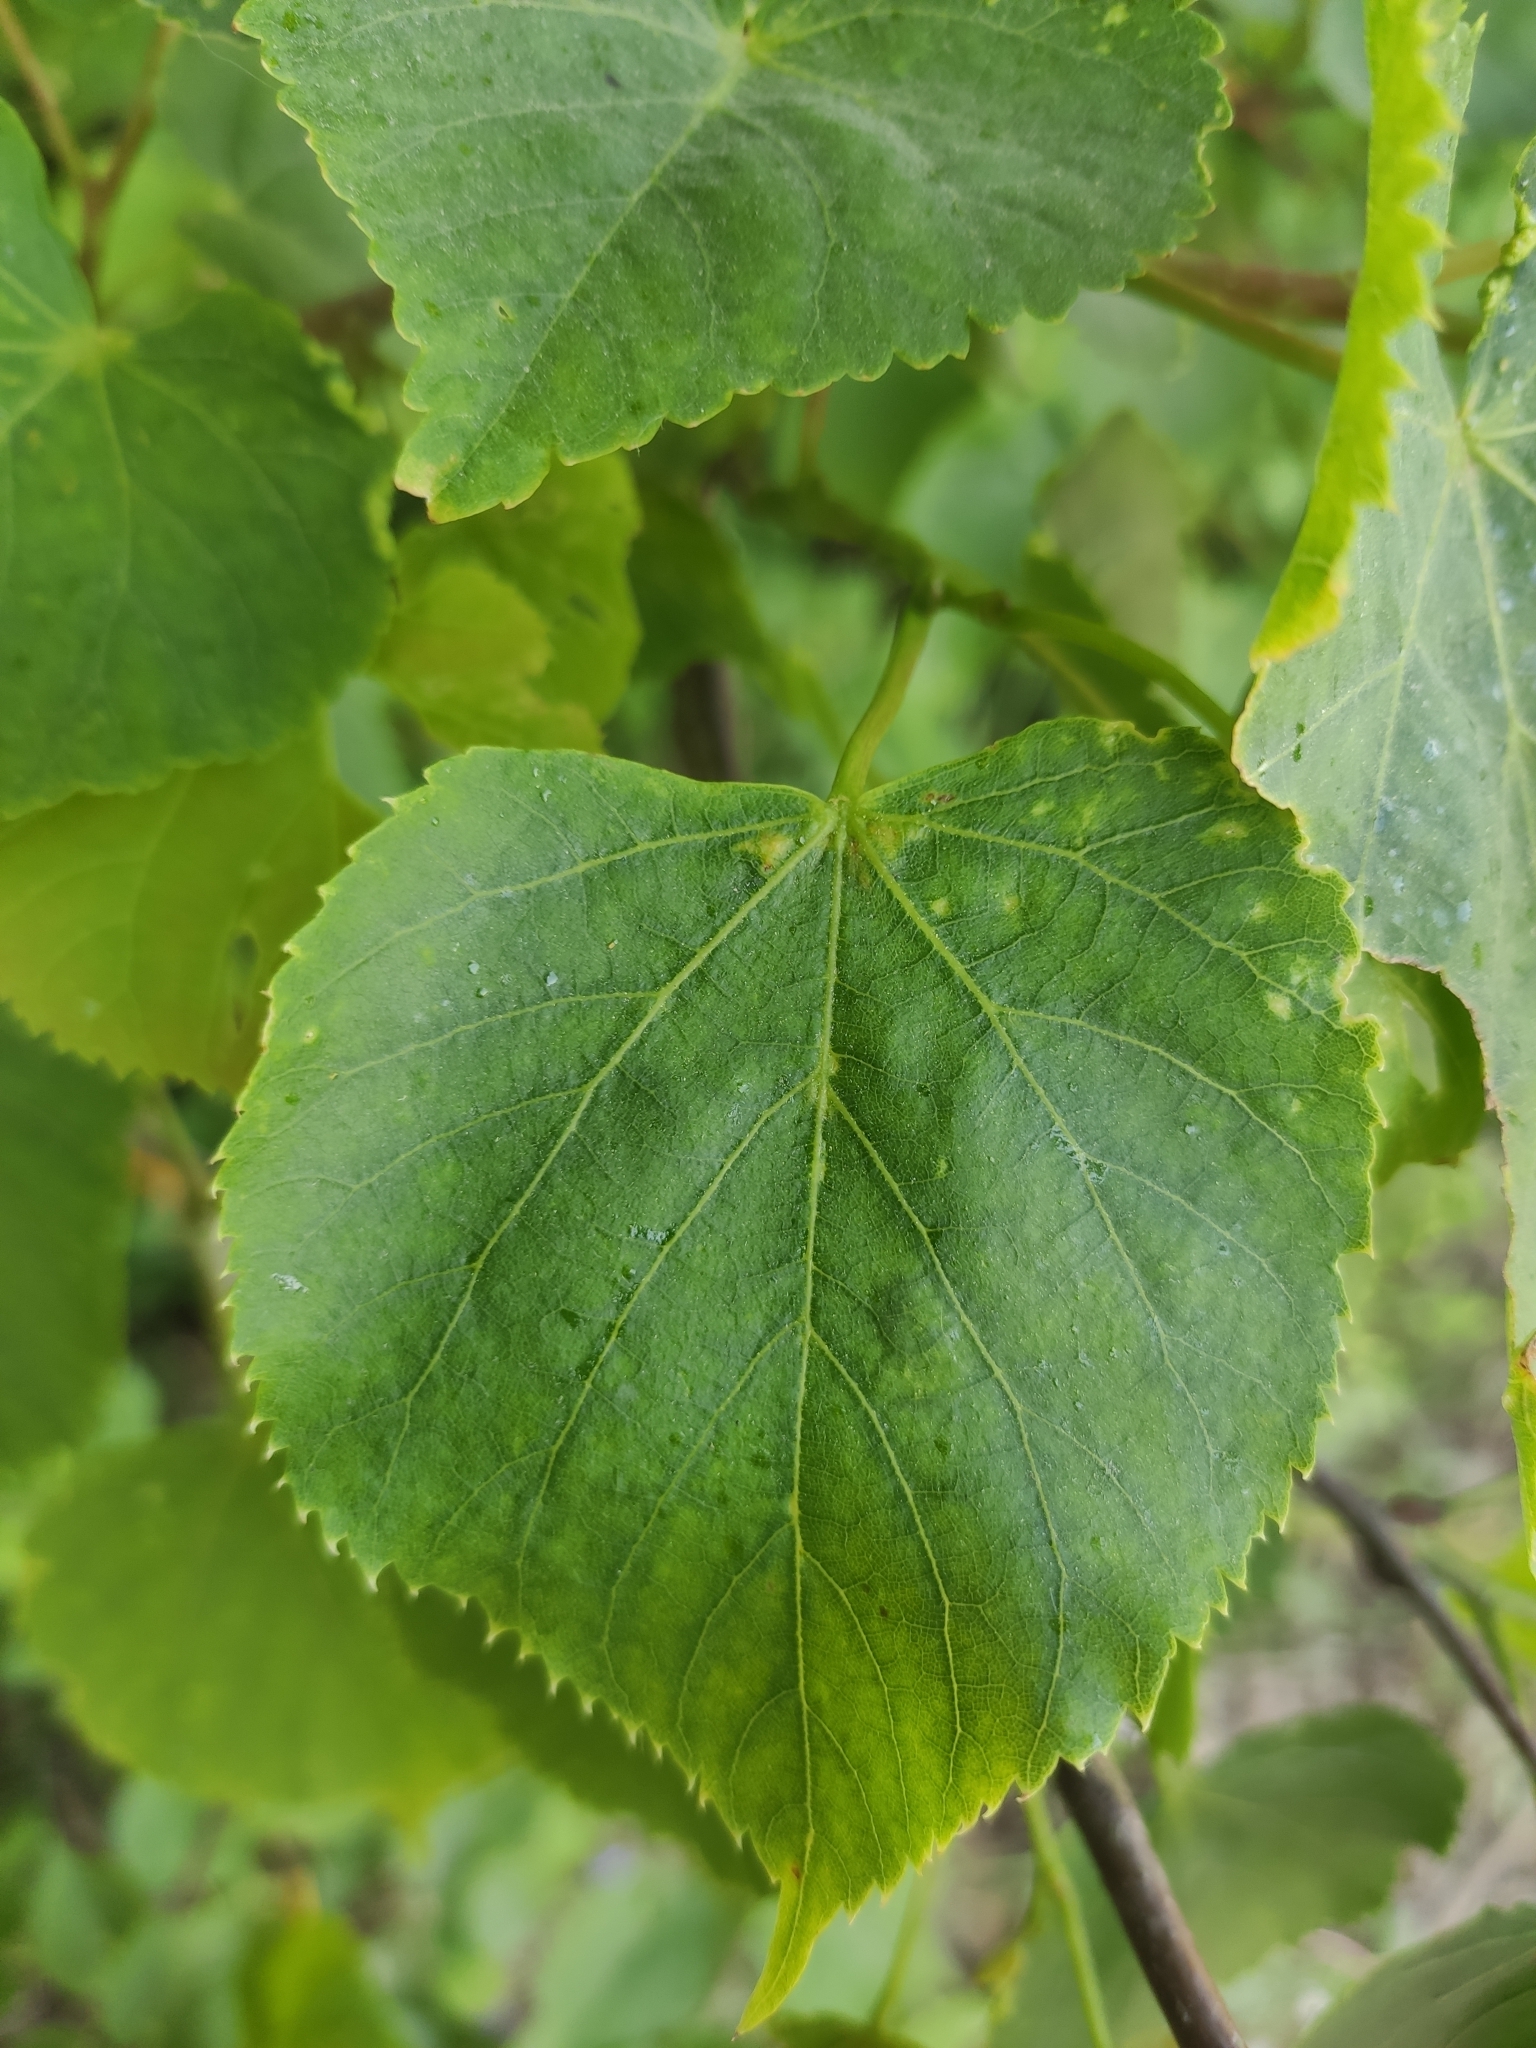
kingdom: Plantae
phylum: Tracheophyta
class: Magnoliopsida
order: Malvales
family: Malvaceae
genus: Tilia
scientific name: Tilia cordata
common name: Small-leaved lime
